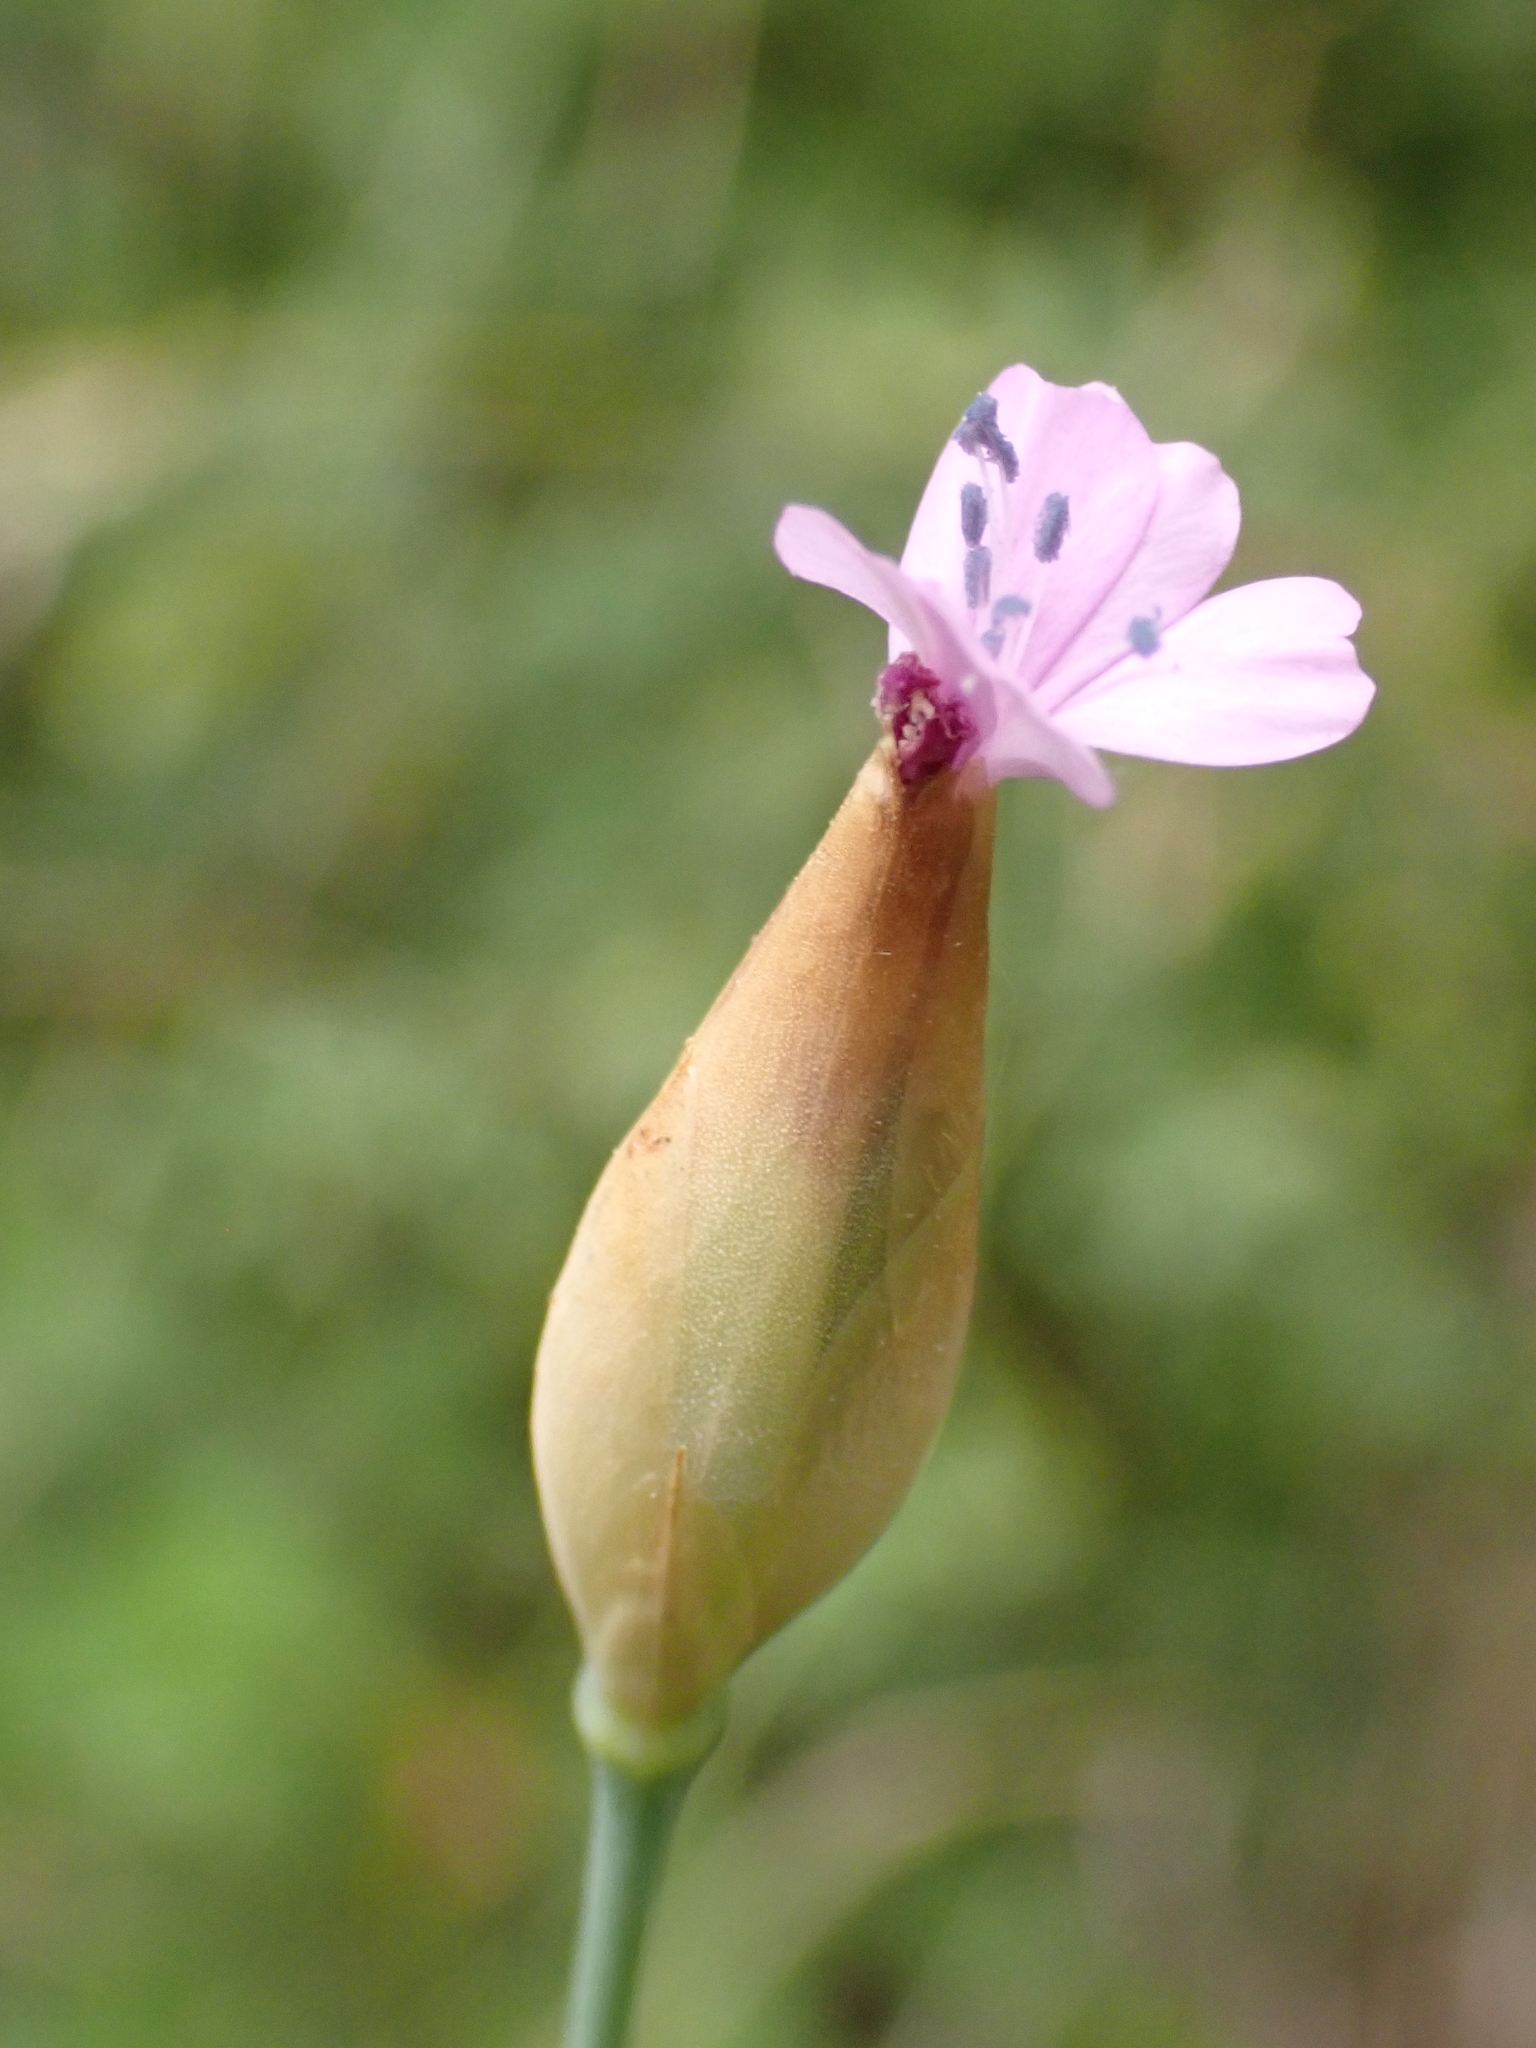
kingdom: Plantae
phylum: Tracheophyta
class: Magnoliopsida
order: Caryophyllales
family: Caryophyllaceae
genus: Petrorhagia
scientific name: Petrorhagia prolifera
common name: Proliferous pink
